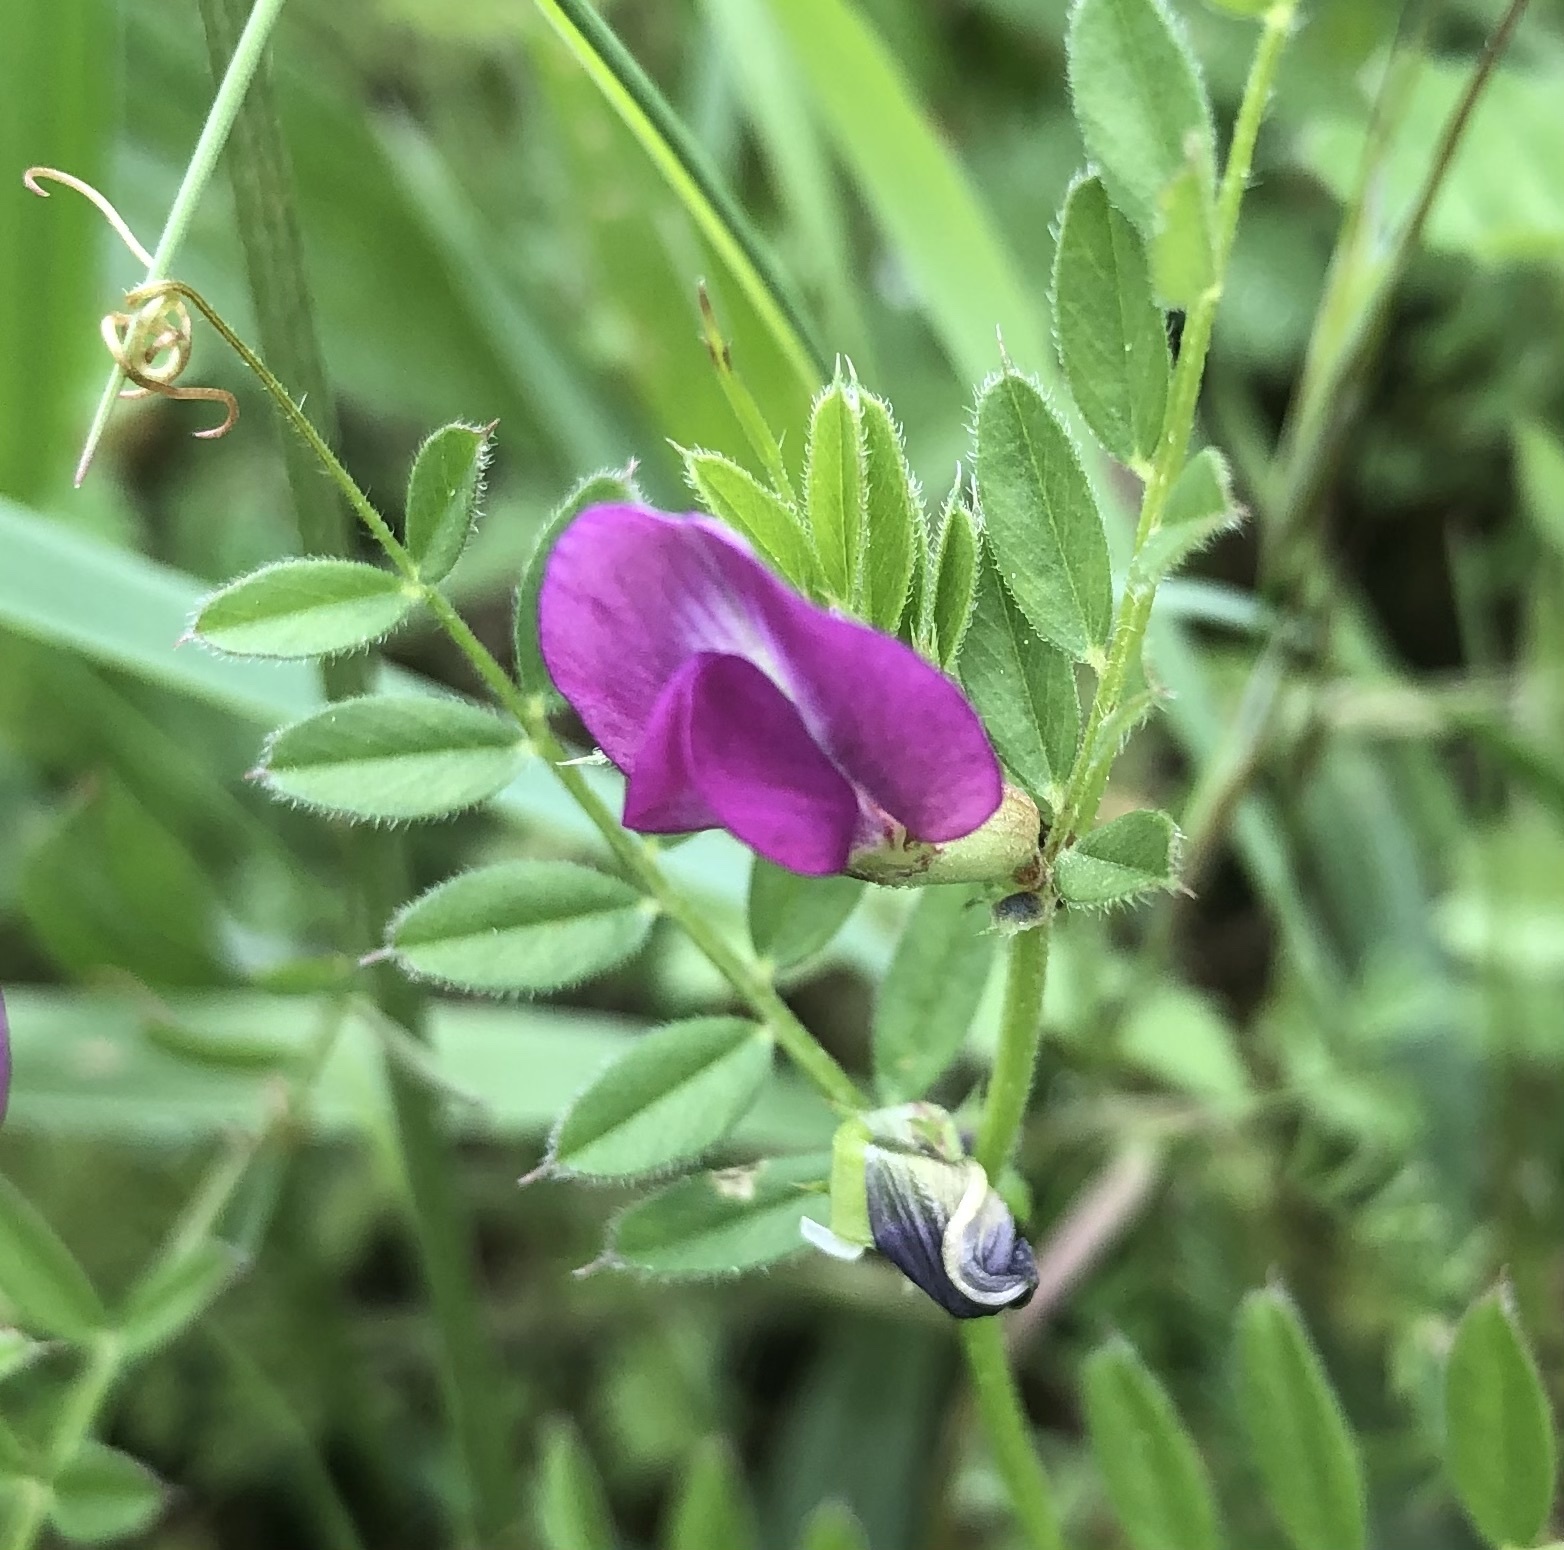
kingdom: Plantae
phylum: Tracheophyta
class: Magnoliopsida
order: Fabales
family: Fabaceae
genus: Vicia
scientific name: Vicia sativa
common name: Garden vetch
